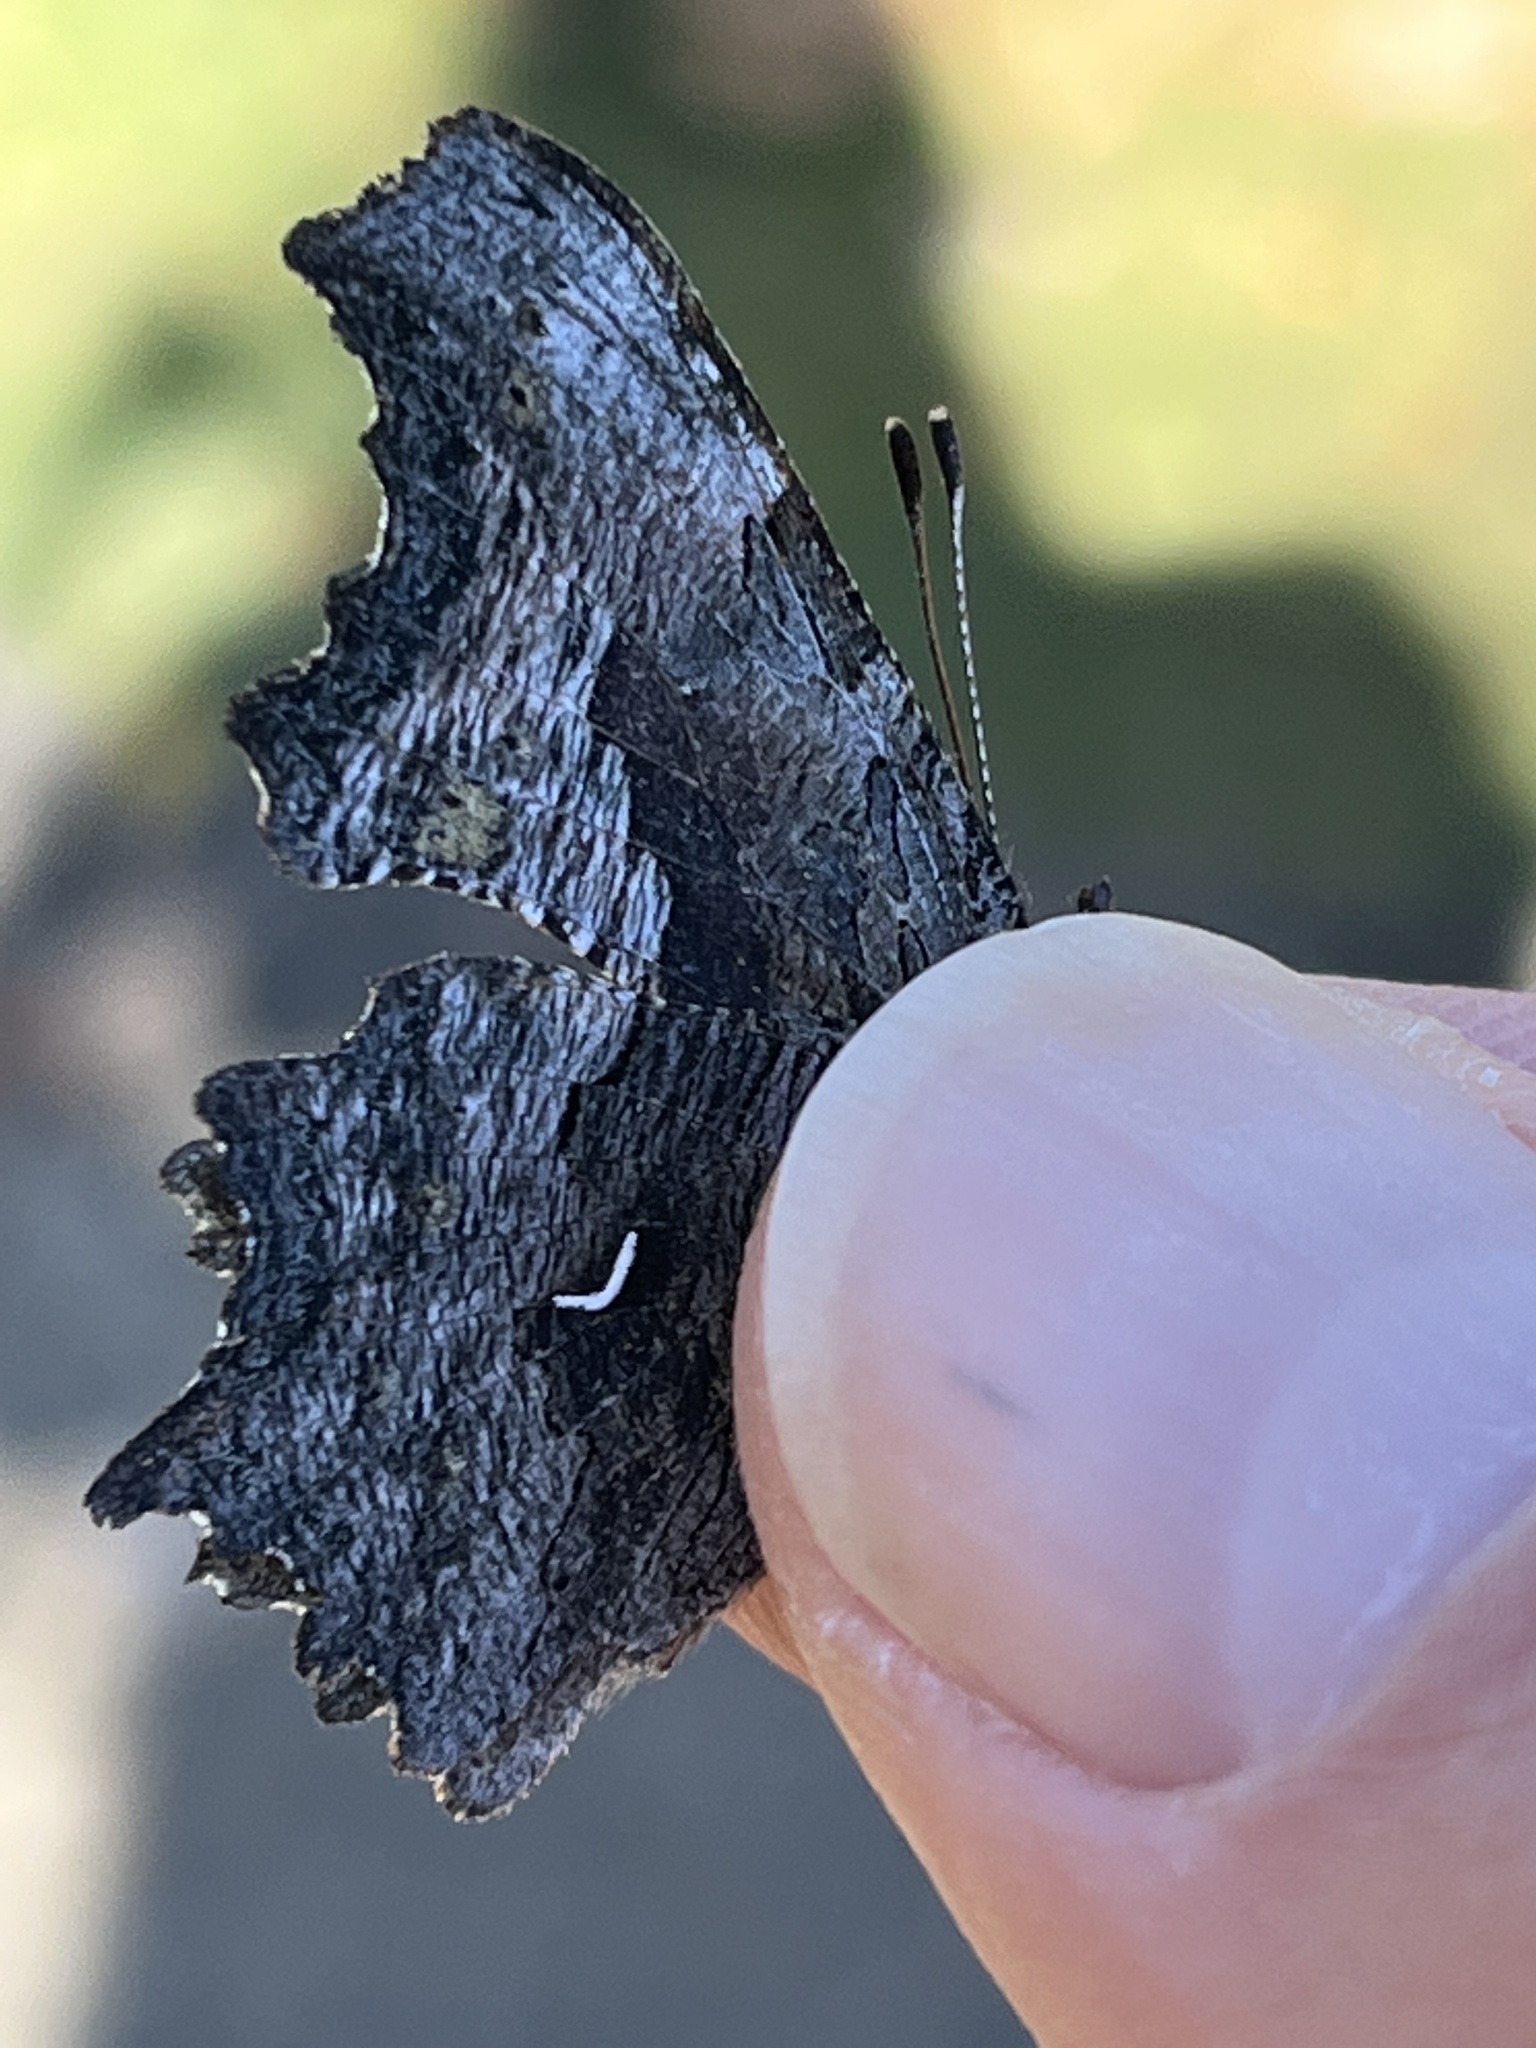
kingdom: Animalia
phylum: Arthropoda
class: Insecta
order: Lepidoptera
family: Nymphalidae
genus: Polygonia
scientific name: Polygonia gracilis
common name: Hoary comma
